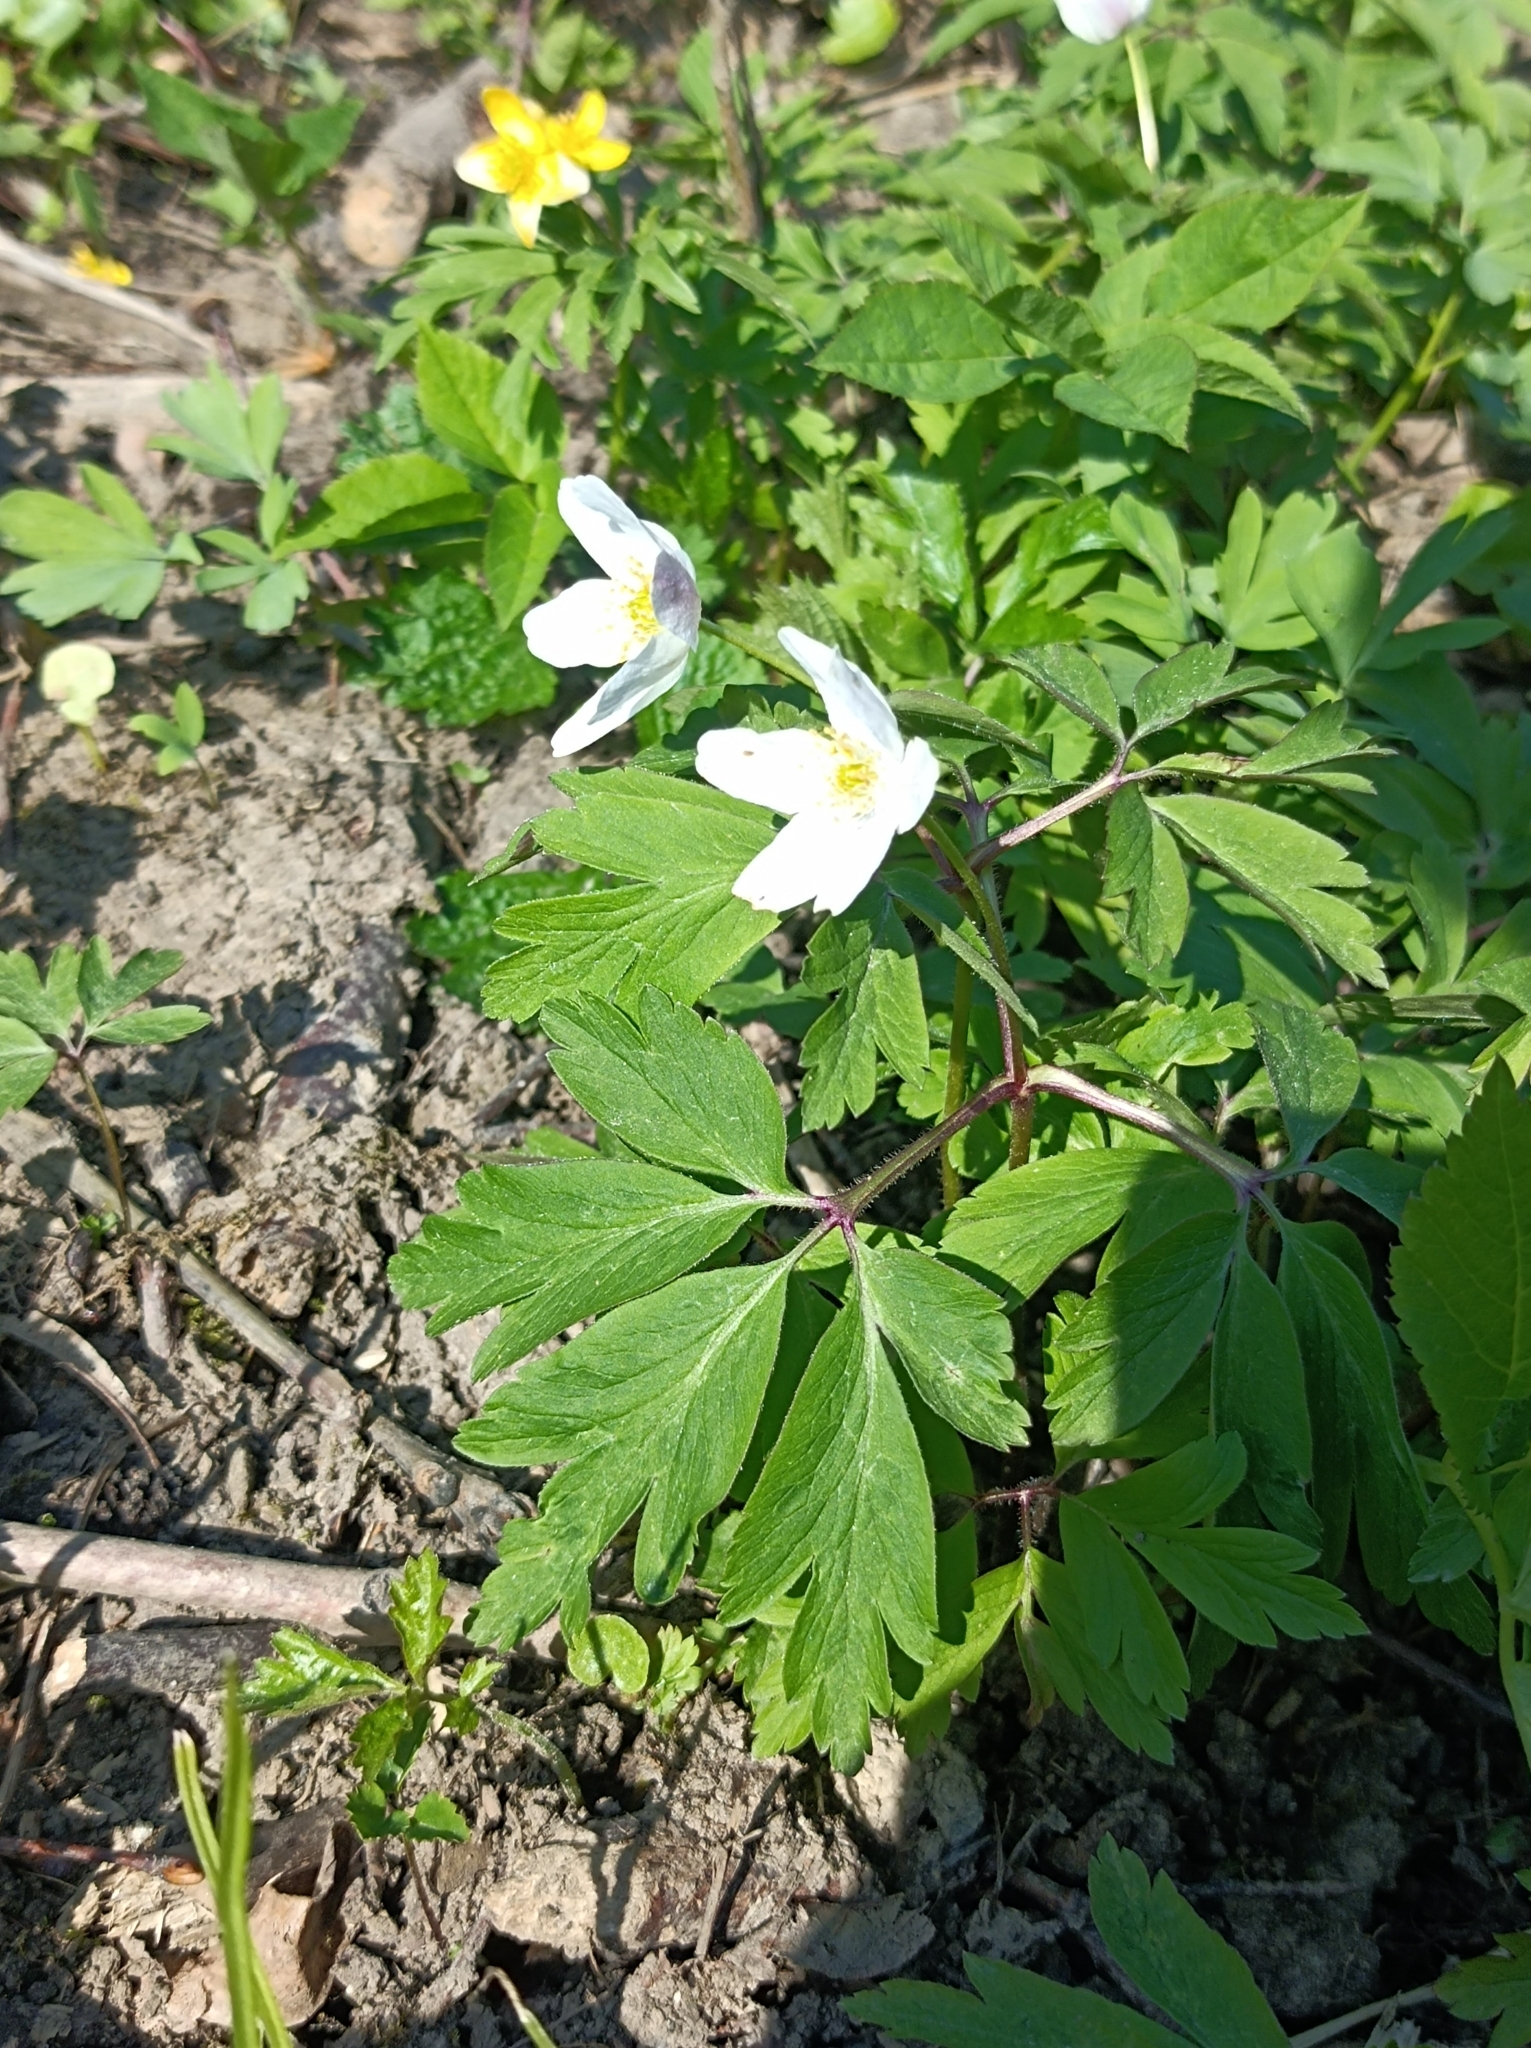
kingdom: Plantae
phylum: Tracheophyta
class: Magnoliopsida
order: Ranunculales
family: Ranunculaceae
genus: Anemone
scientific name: Anemone nemorosa
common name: Wood anemone
